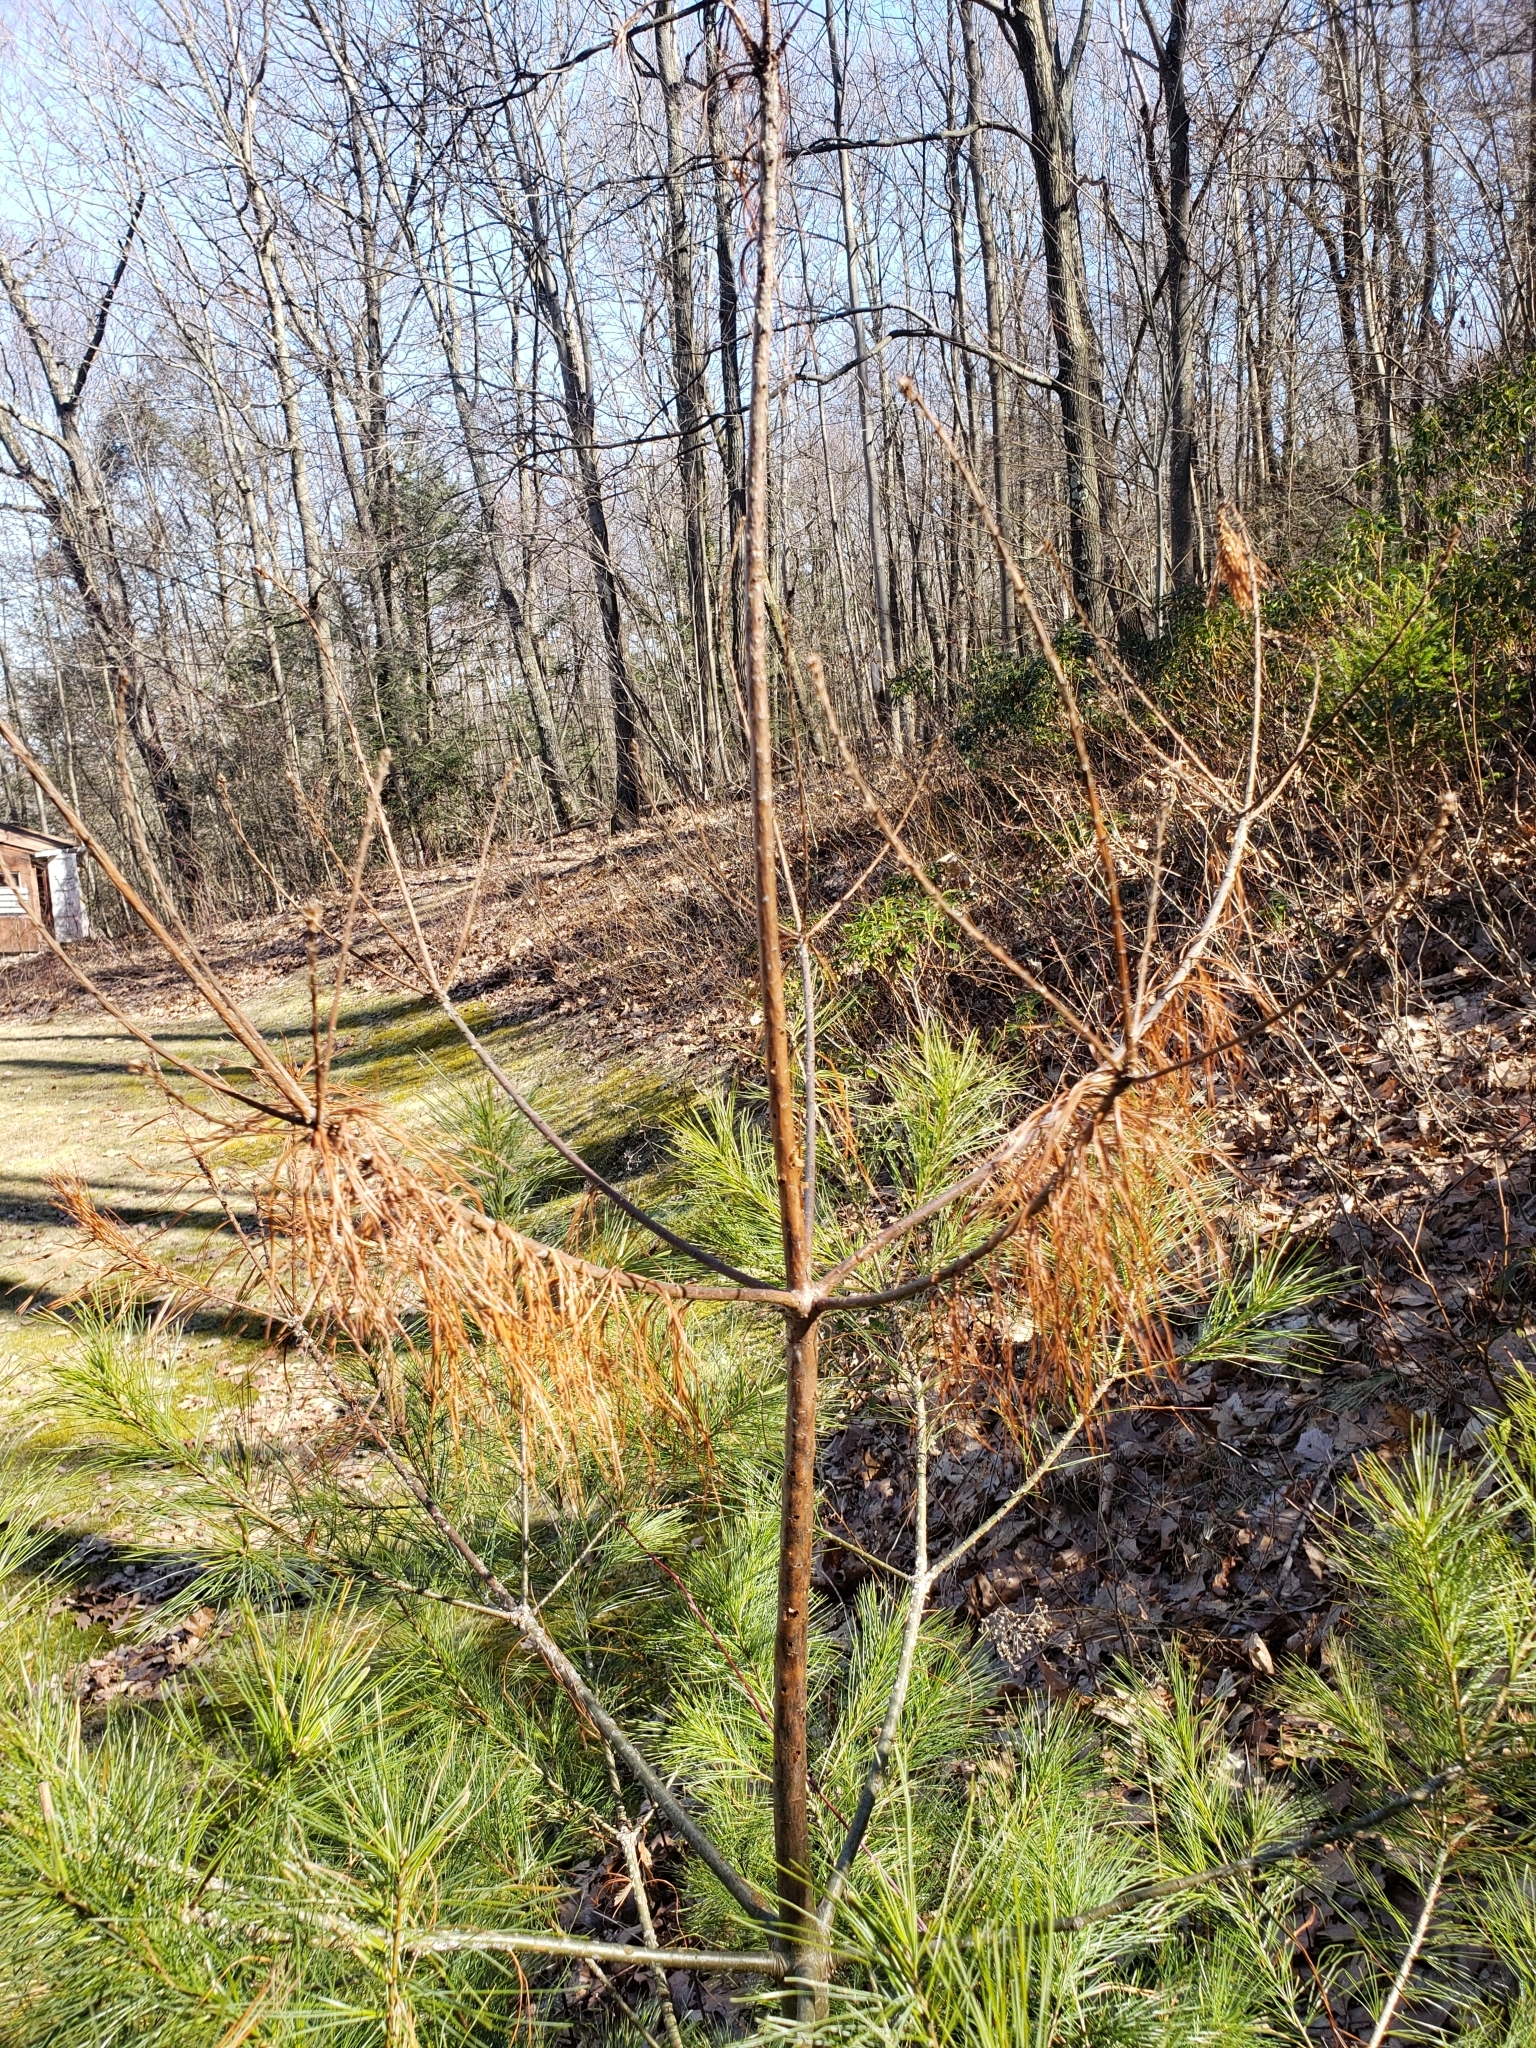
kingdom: Plantae
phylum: Tracheophyta
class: Pinopsida
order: Pinales
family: Pinaceae
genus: Pinus
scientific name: Pinus strobus
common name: Weymouth pine
